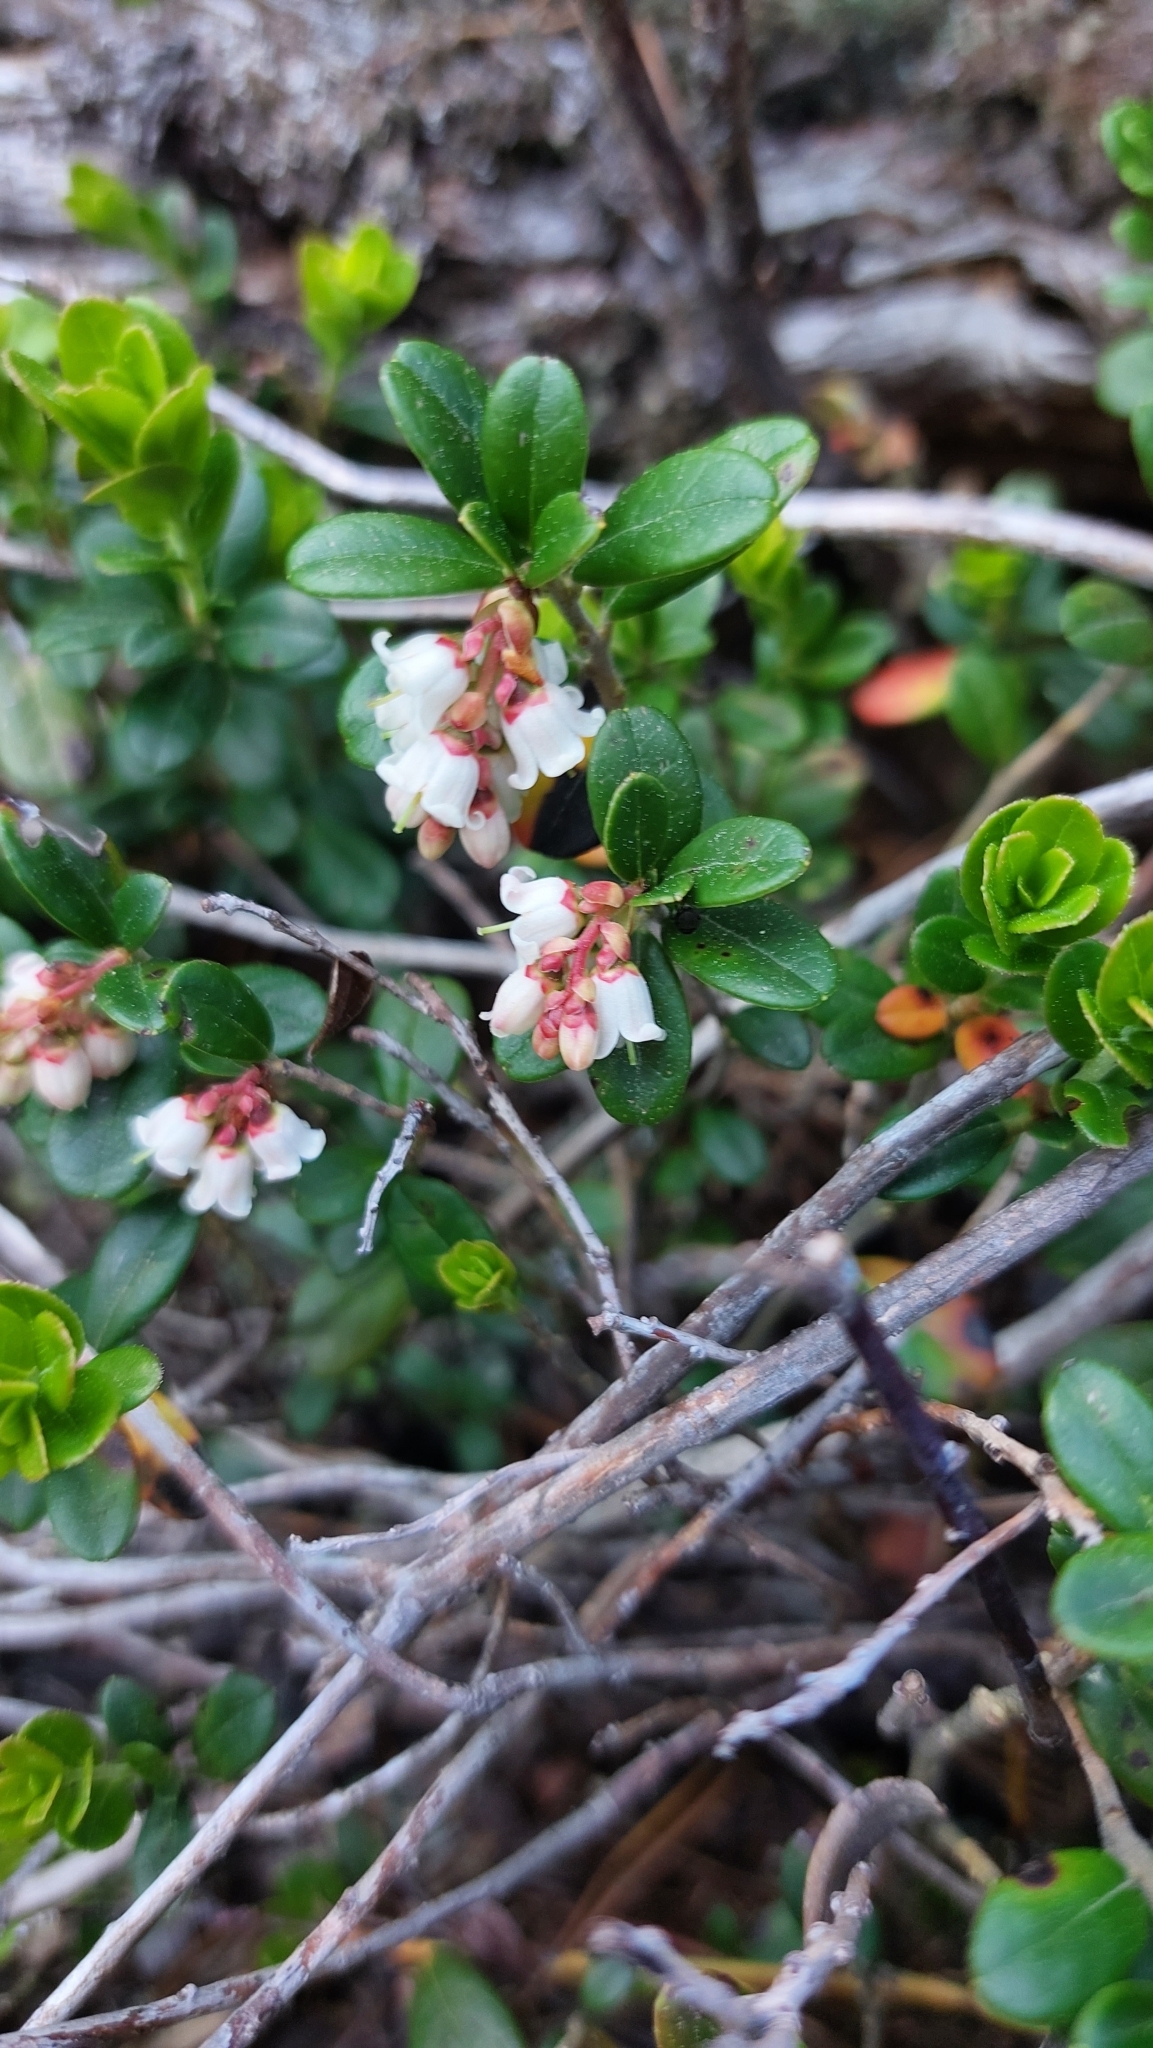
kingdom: Plantae
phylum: Tracheophyta
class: Magnoliopsida
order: Ericales
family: Ericaceae
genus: Vaccinium
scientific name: Vaccinium vitis-idaea
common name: Cowberry
